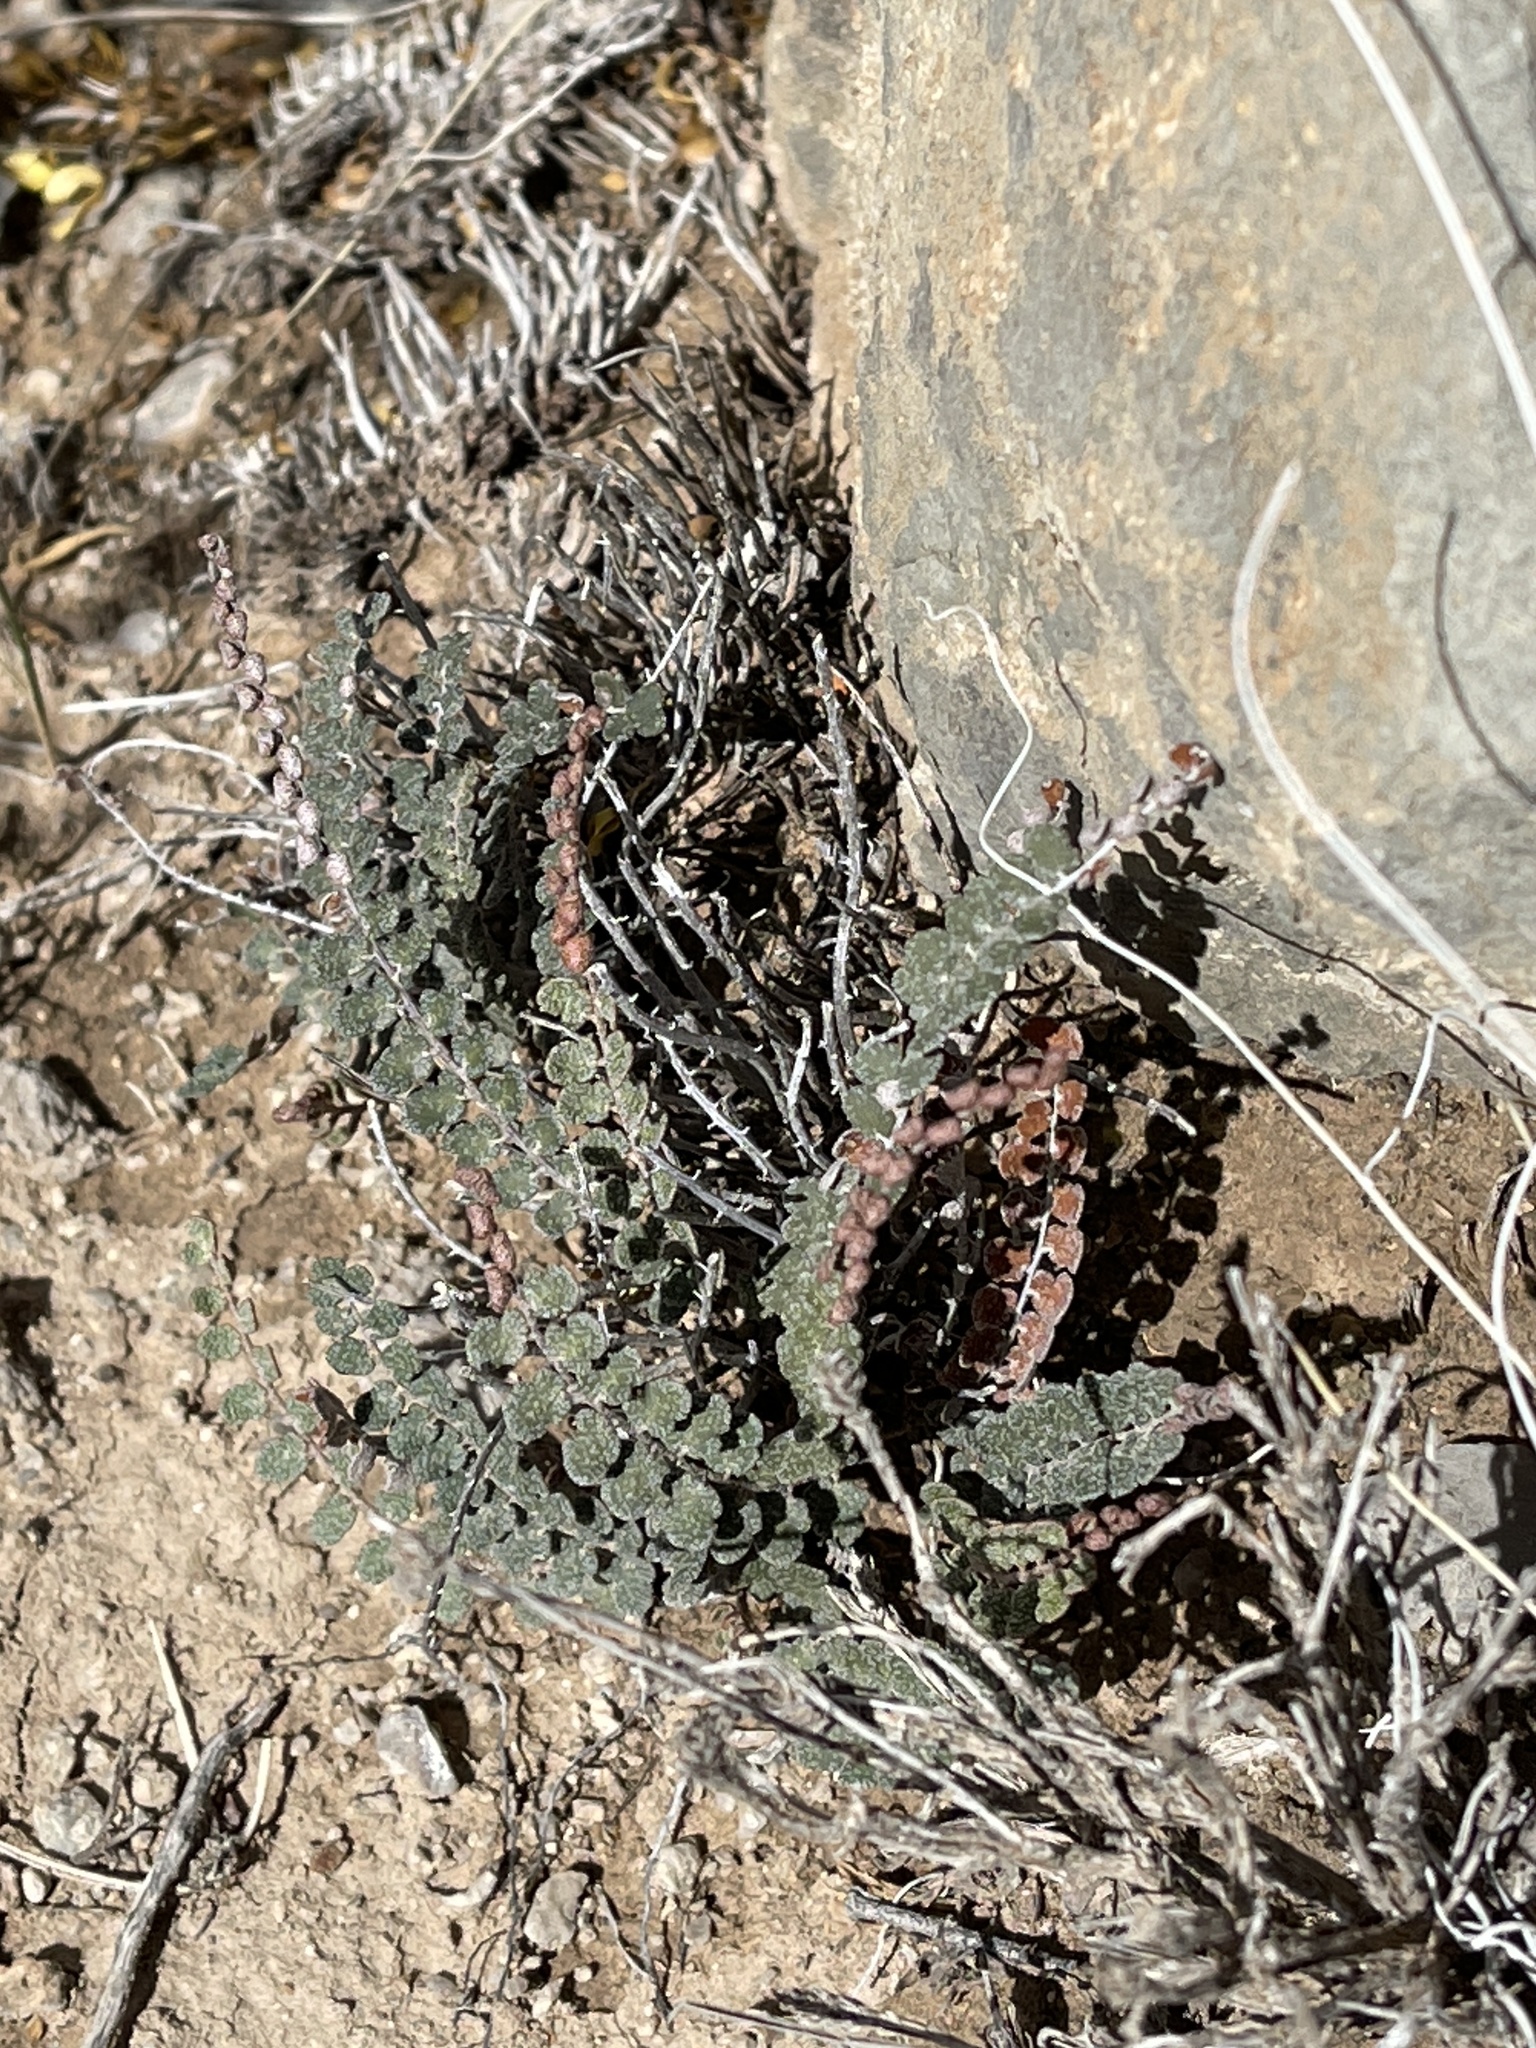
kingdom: Plantae
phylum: Tracheophyta
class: Polypodiopsida
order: Polypodiales
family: Pteridaceae
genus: Astrolepis
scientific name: Astrolepis cochisensis
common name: Scaly cloak fern
